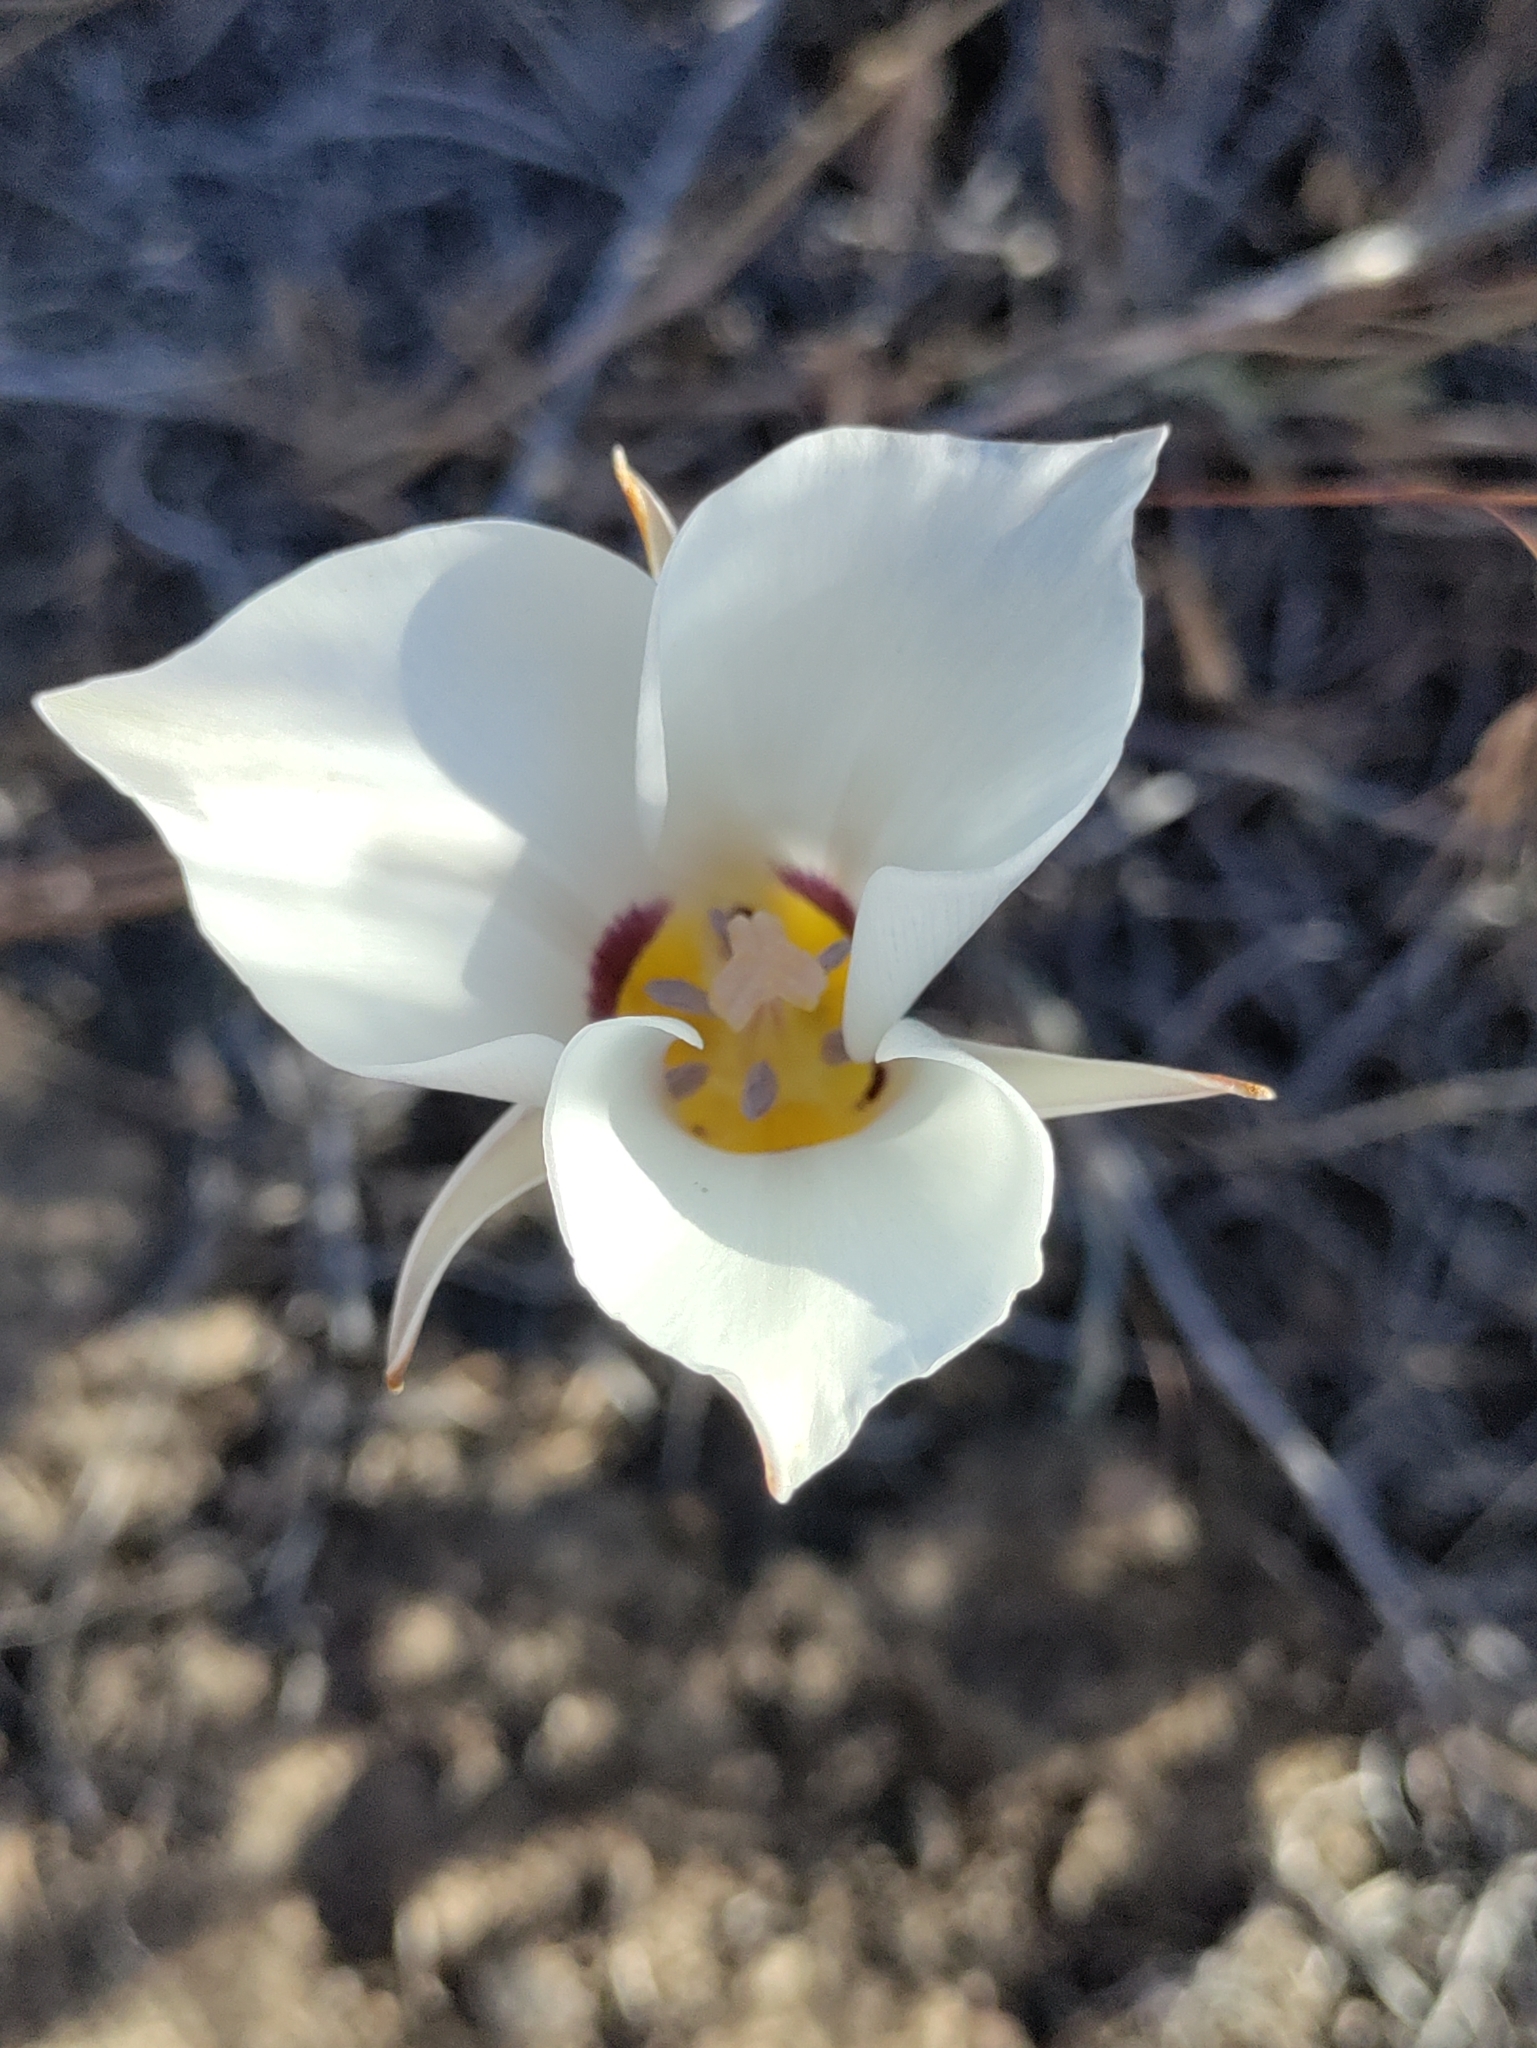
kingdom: Plantae
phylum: Tracheophyta
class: Liliopsida
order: Liliales
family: Liliaceae
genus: Calochortus
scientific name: Calochortus bruneaunis
